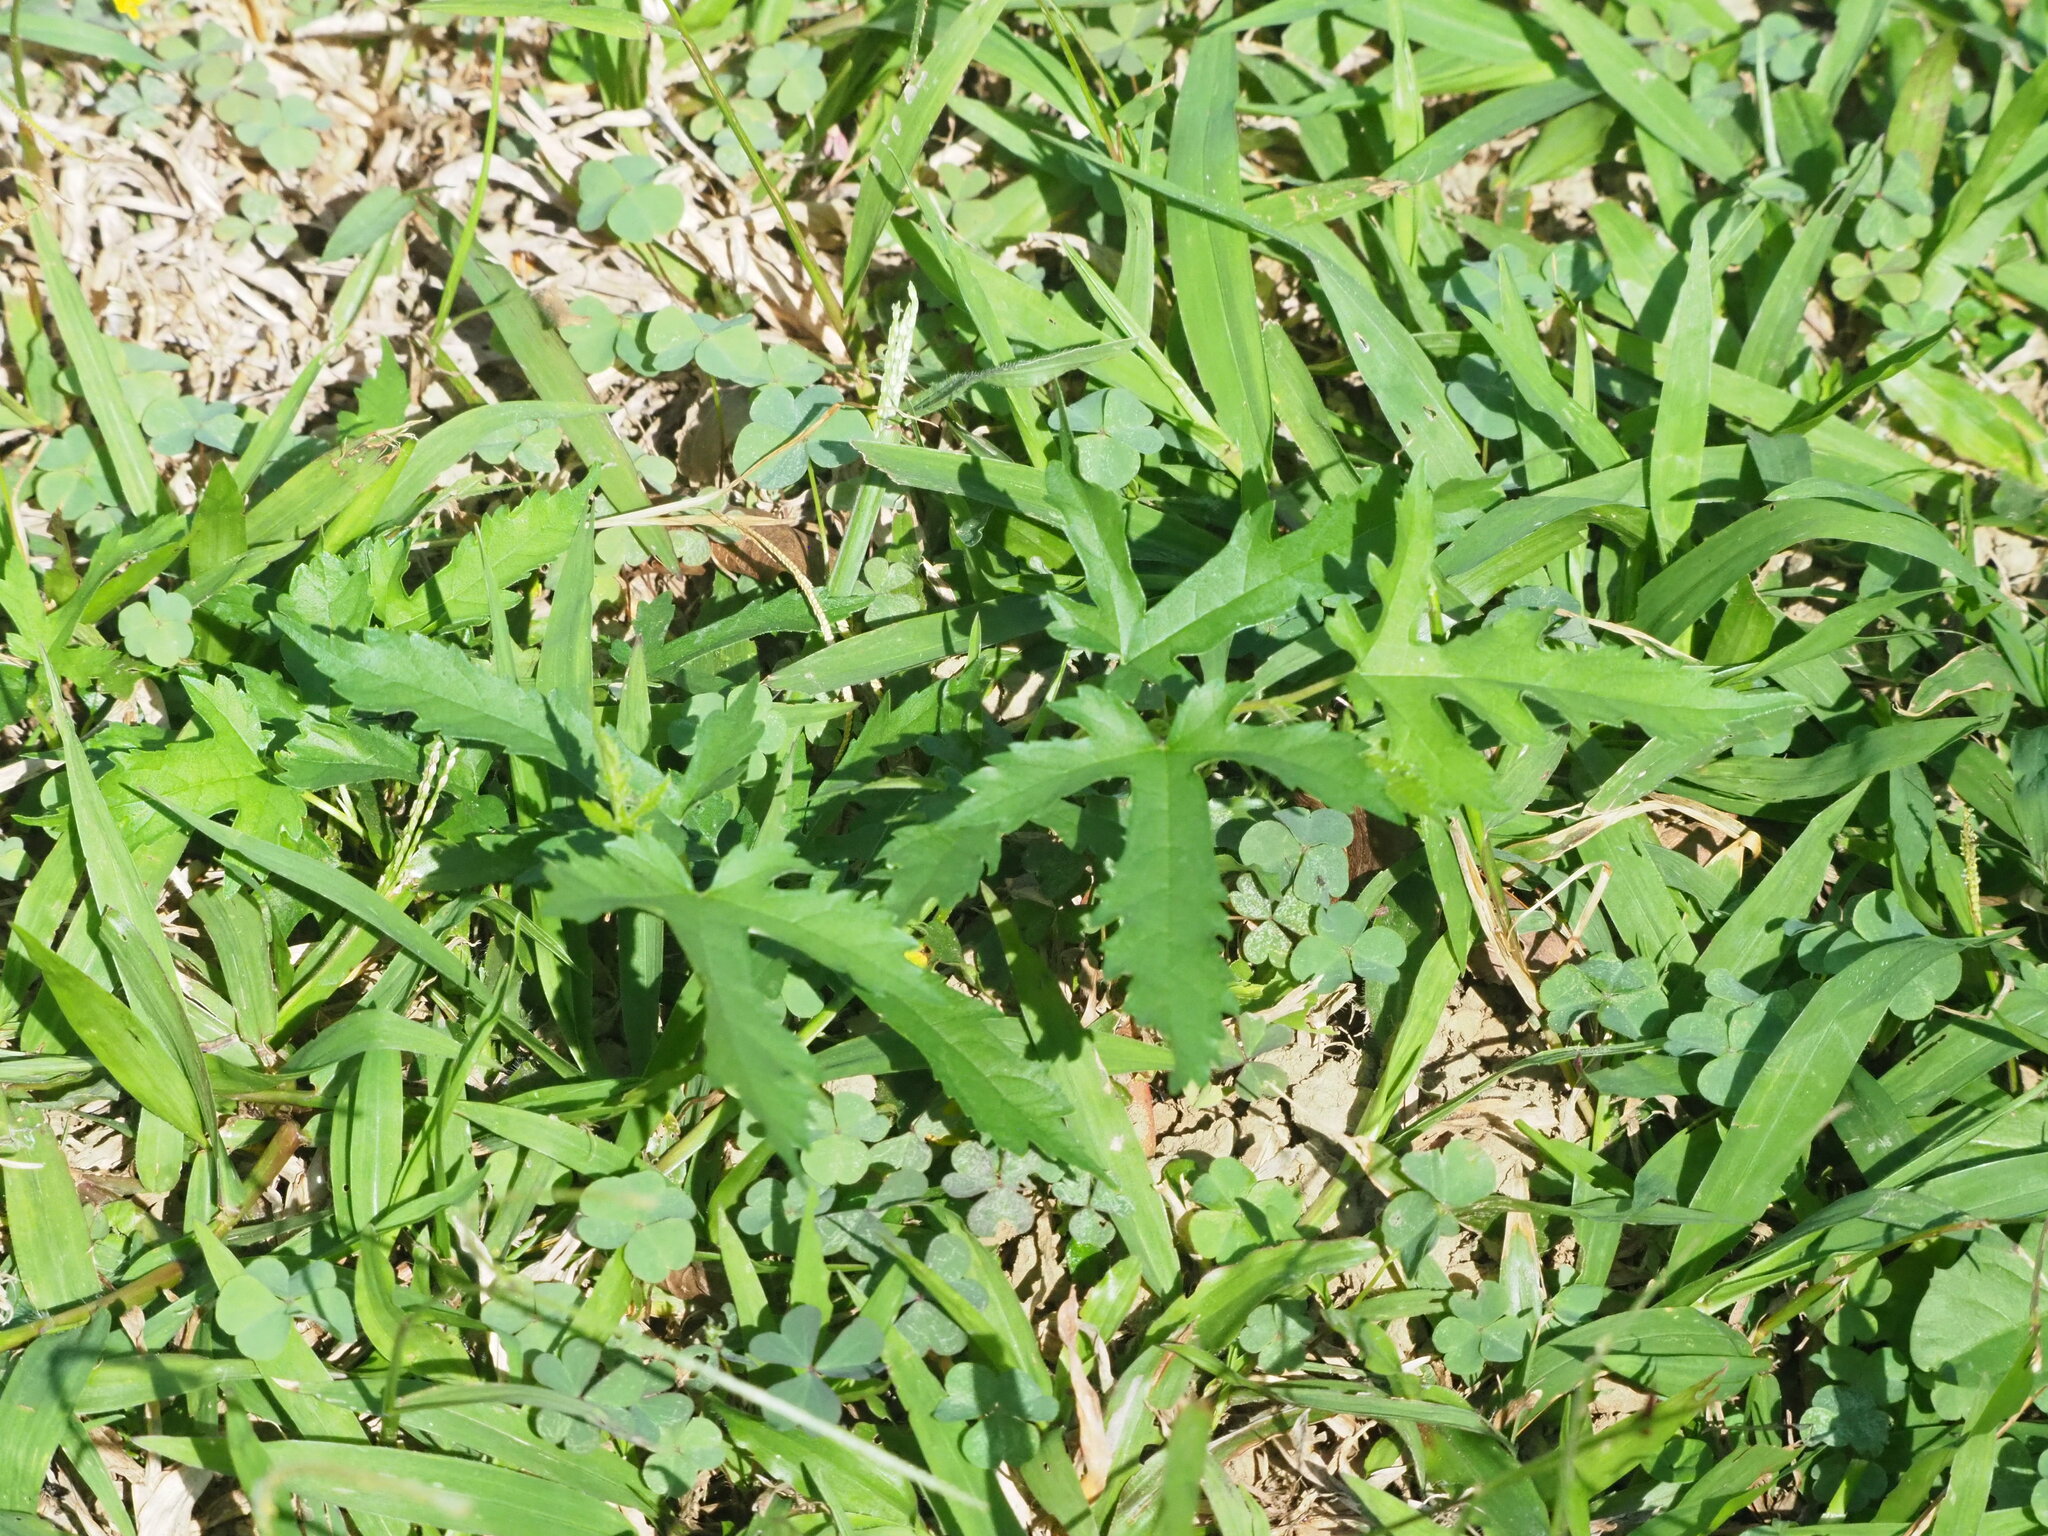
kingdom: Plantae
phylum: Tracheophyta
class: Magnoliopsida
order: Rosales
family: Moraceae
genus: Morus
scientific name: Morus indica
